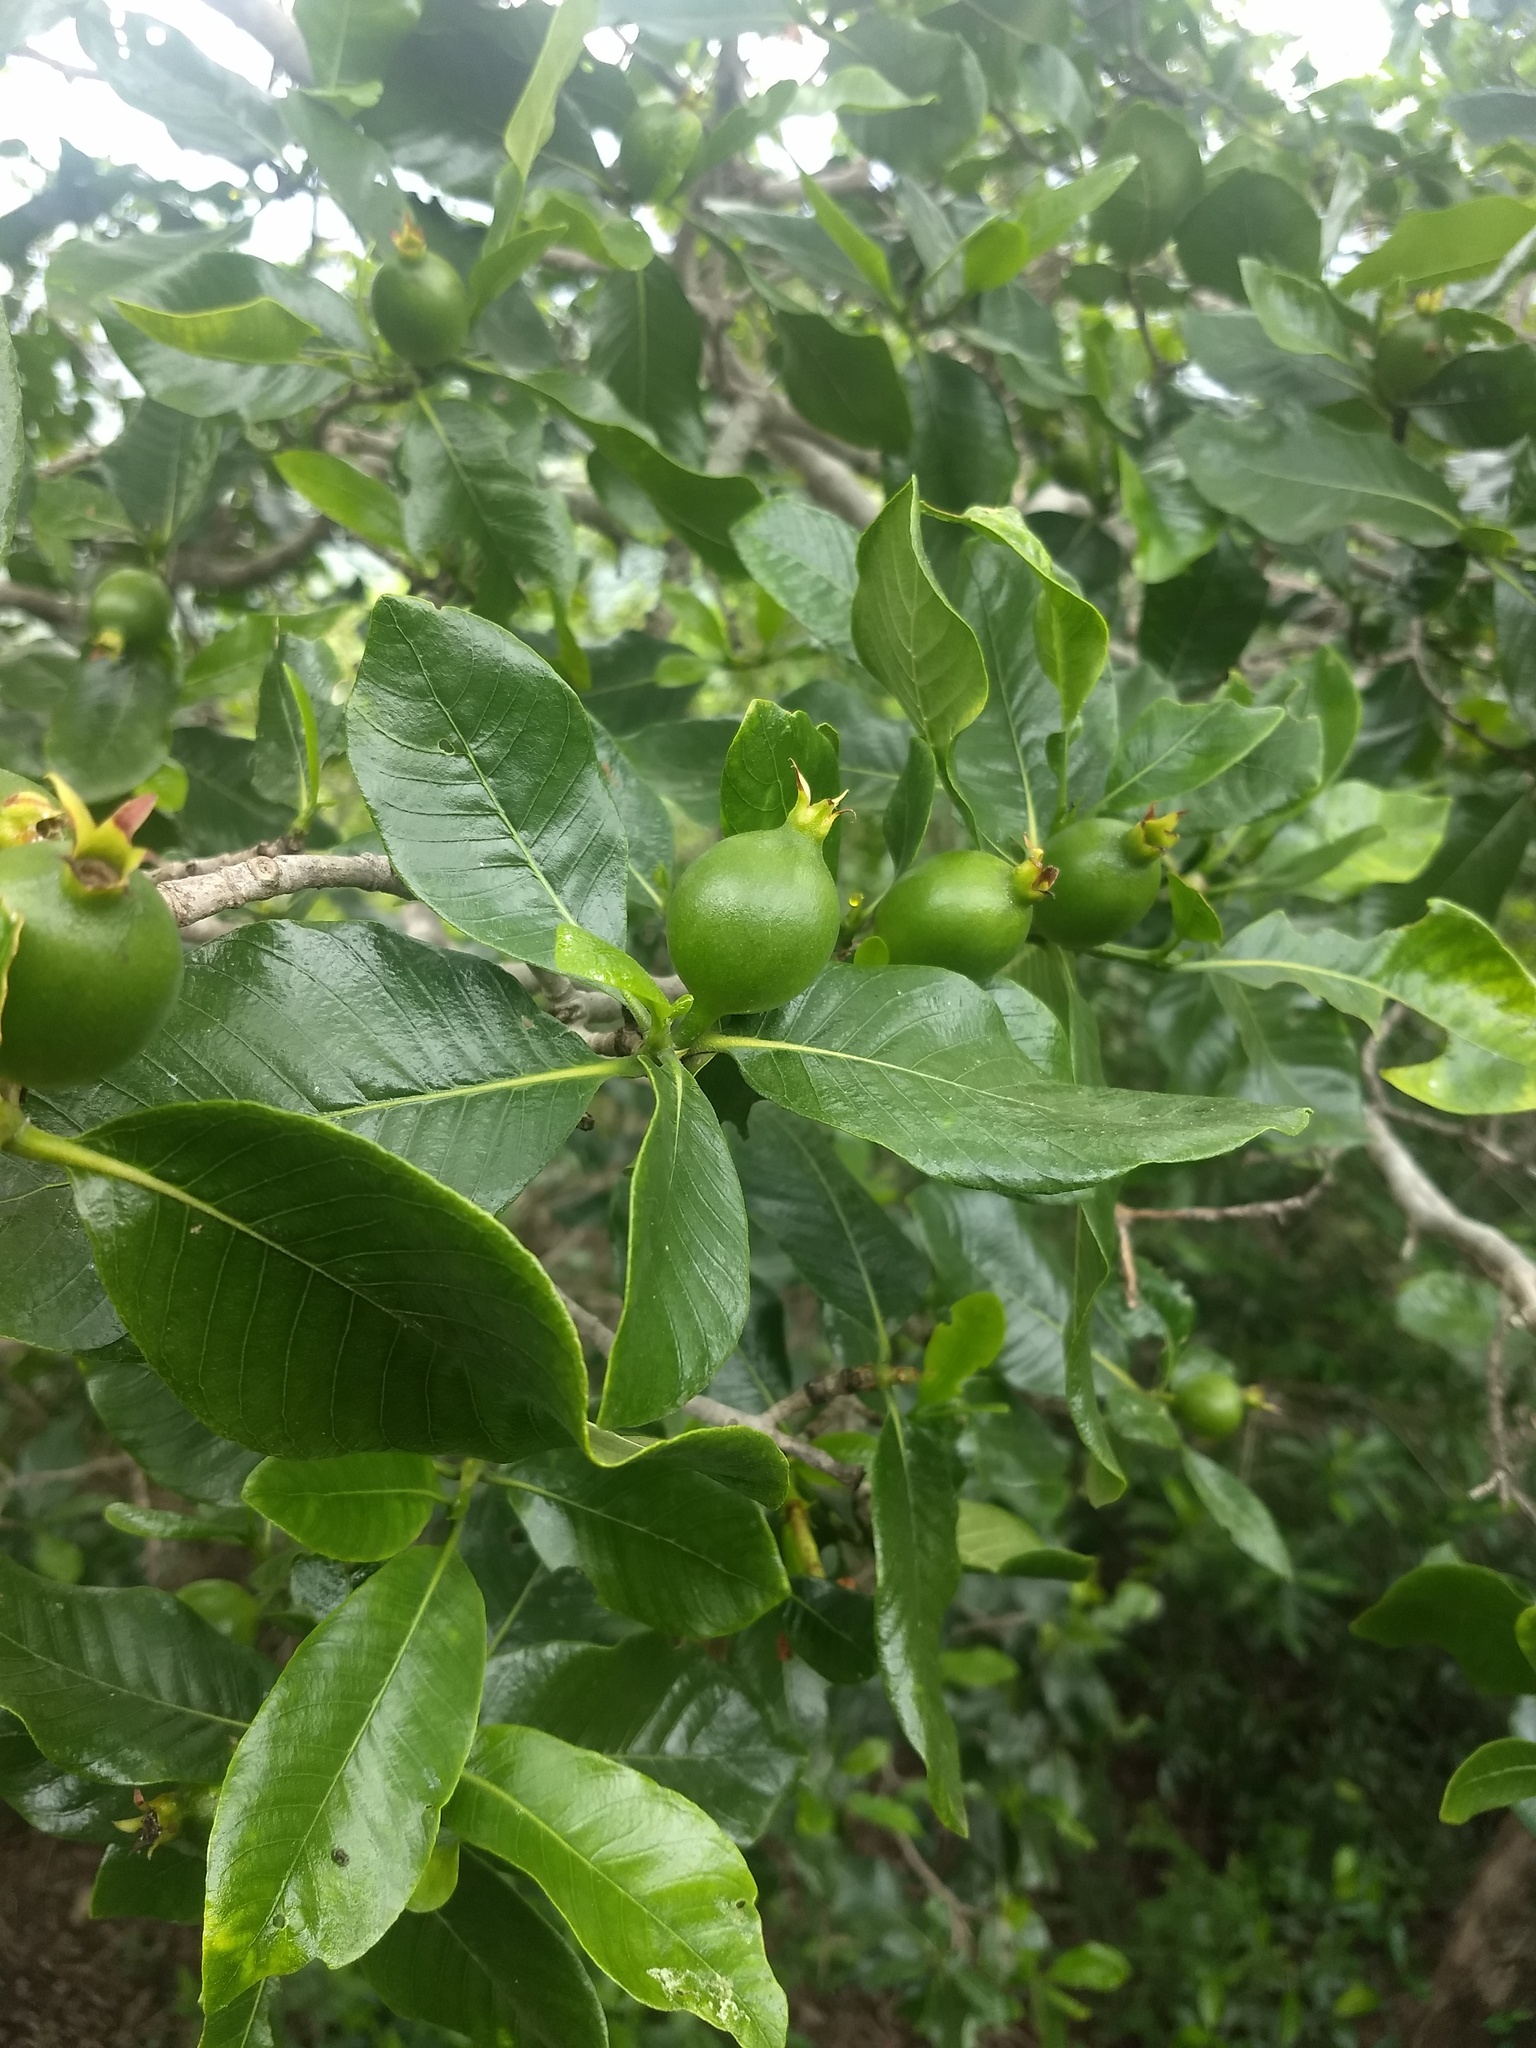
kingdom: Plantae
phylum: Tracheophyta
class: Magnoliopsida
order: Gentianales
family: Rubiaceae
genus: Gardenia
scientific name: Gardenia resinifera
